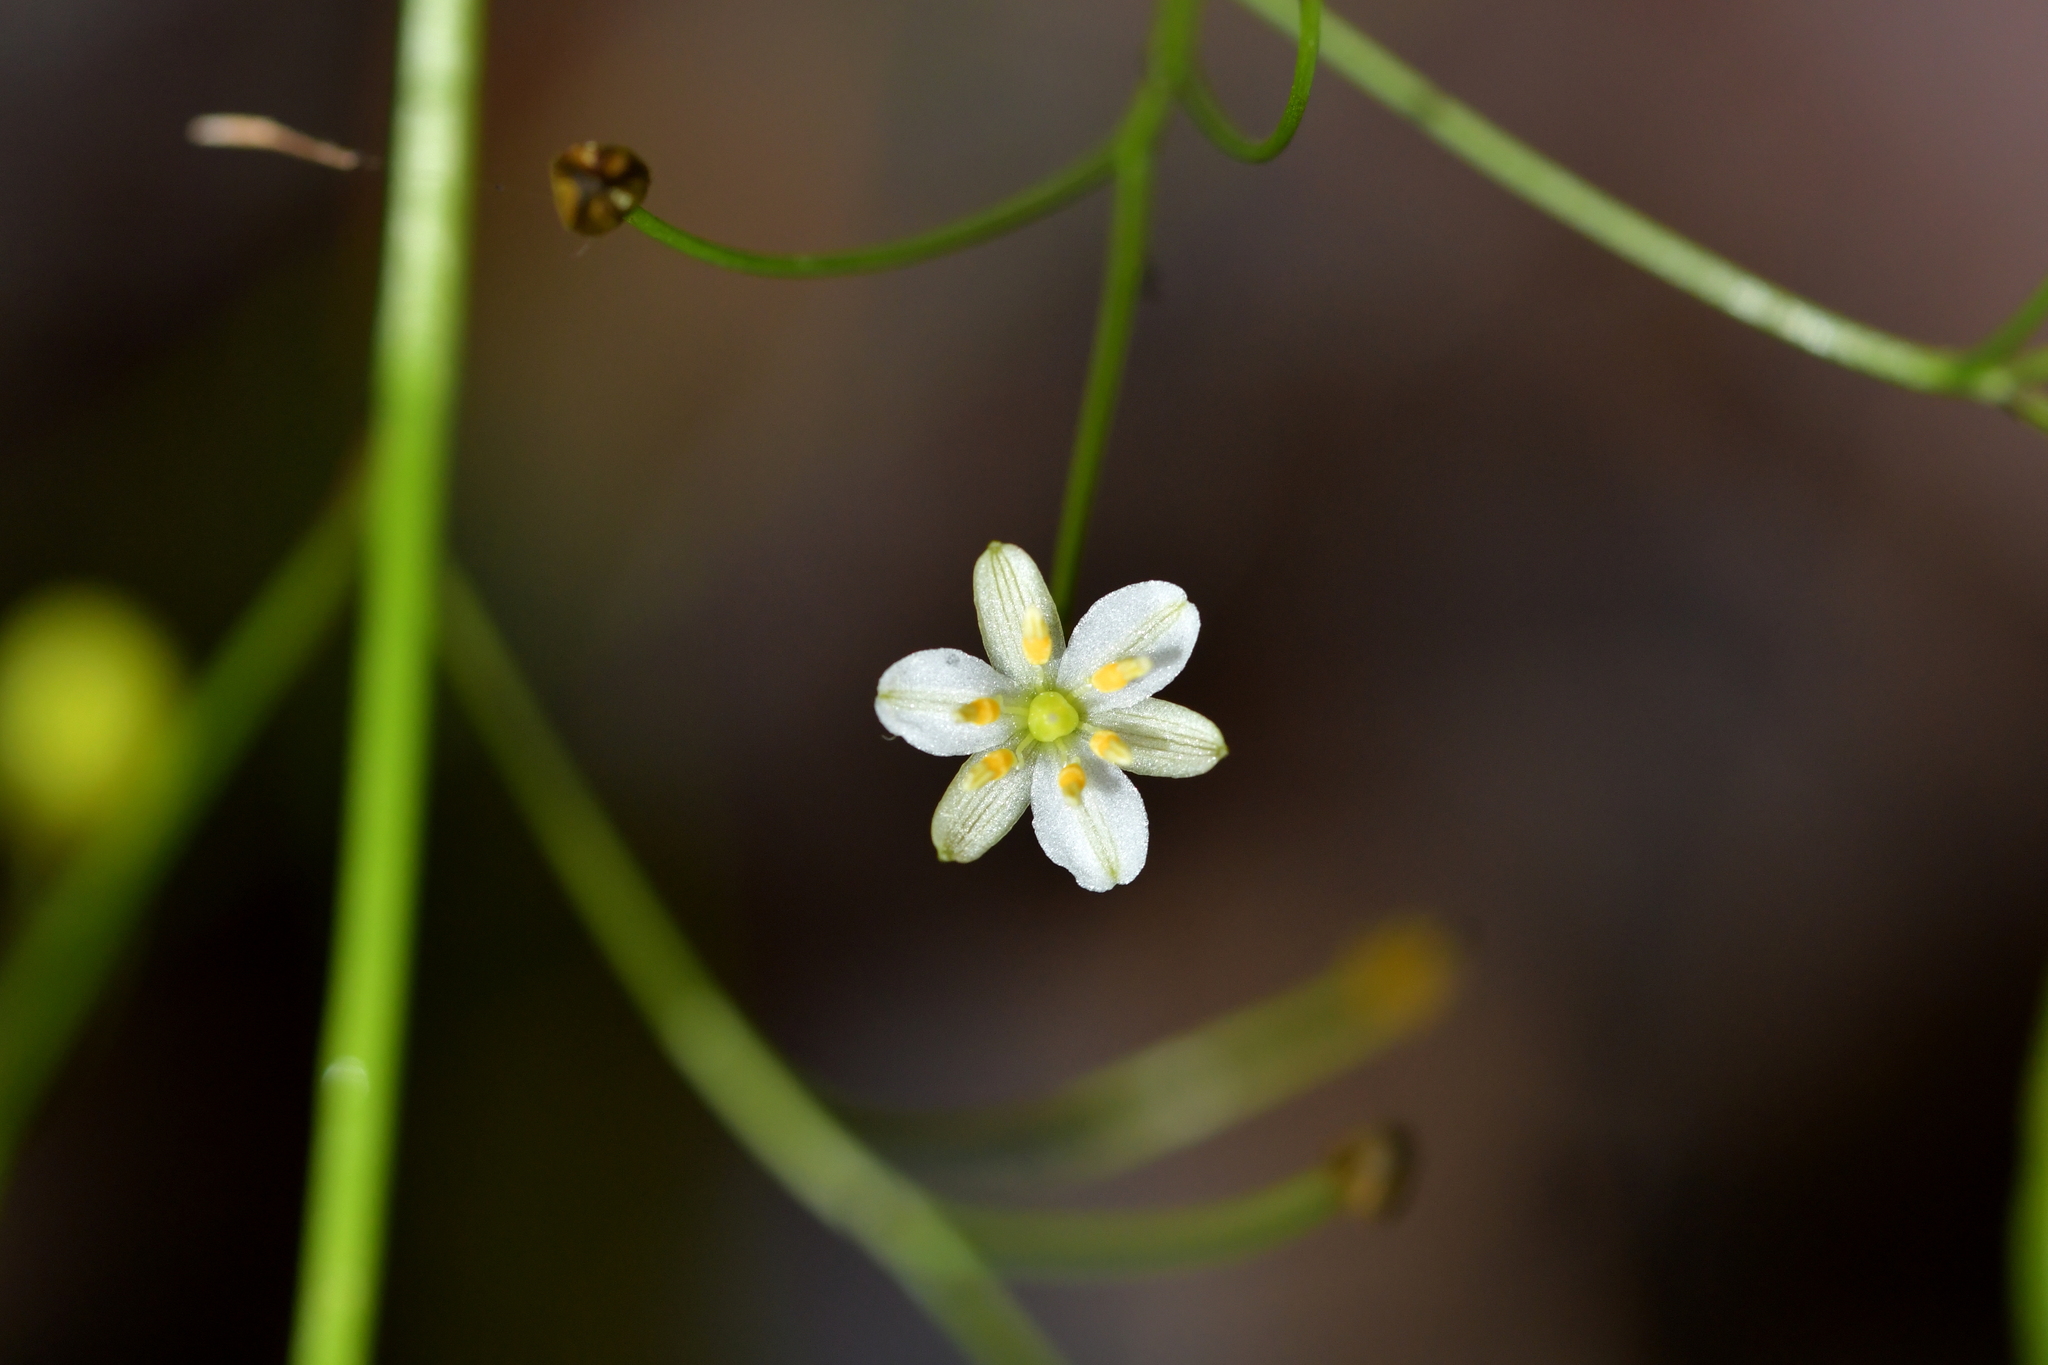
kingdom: Plantae
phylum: Tracheophyta
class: Liliopsida
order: Asparagales
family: Asphodelaceae
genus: Dianella
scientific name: Dianella nigra
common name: New zealand-blueberry
